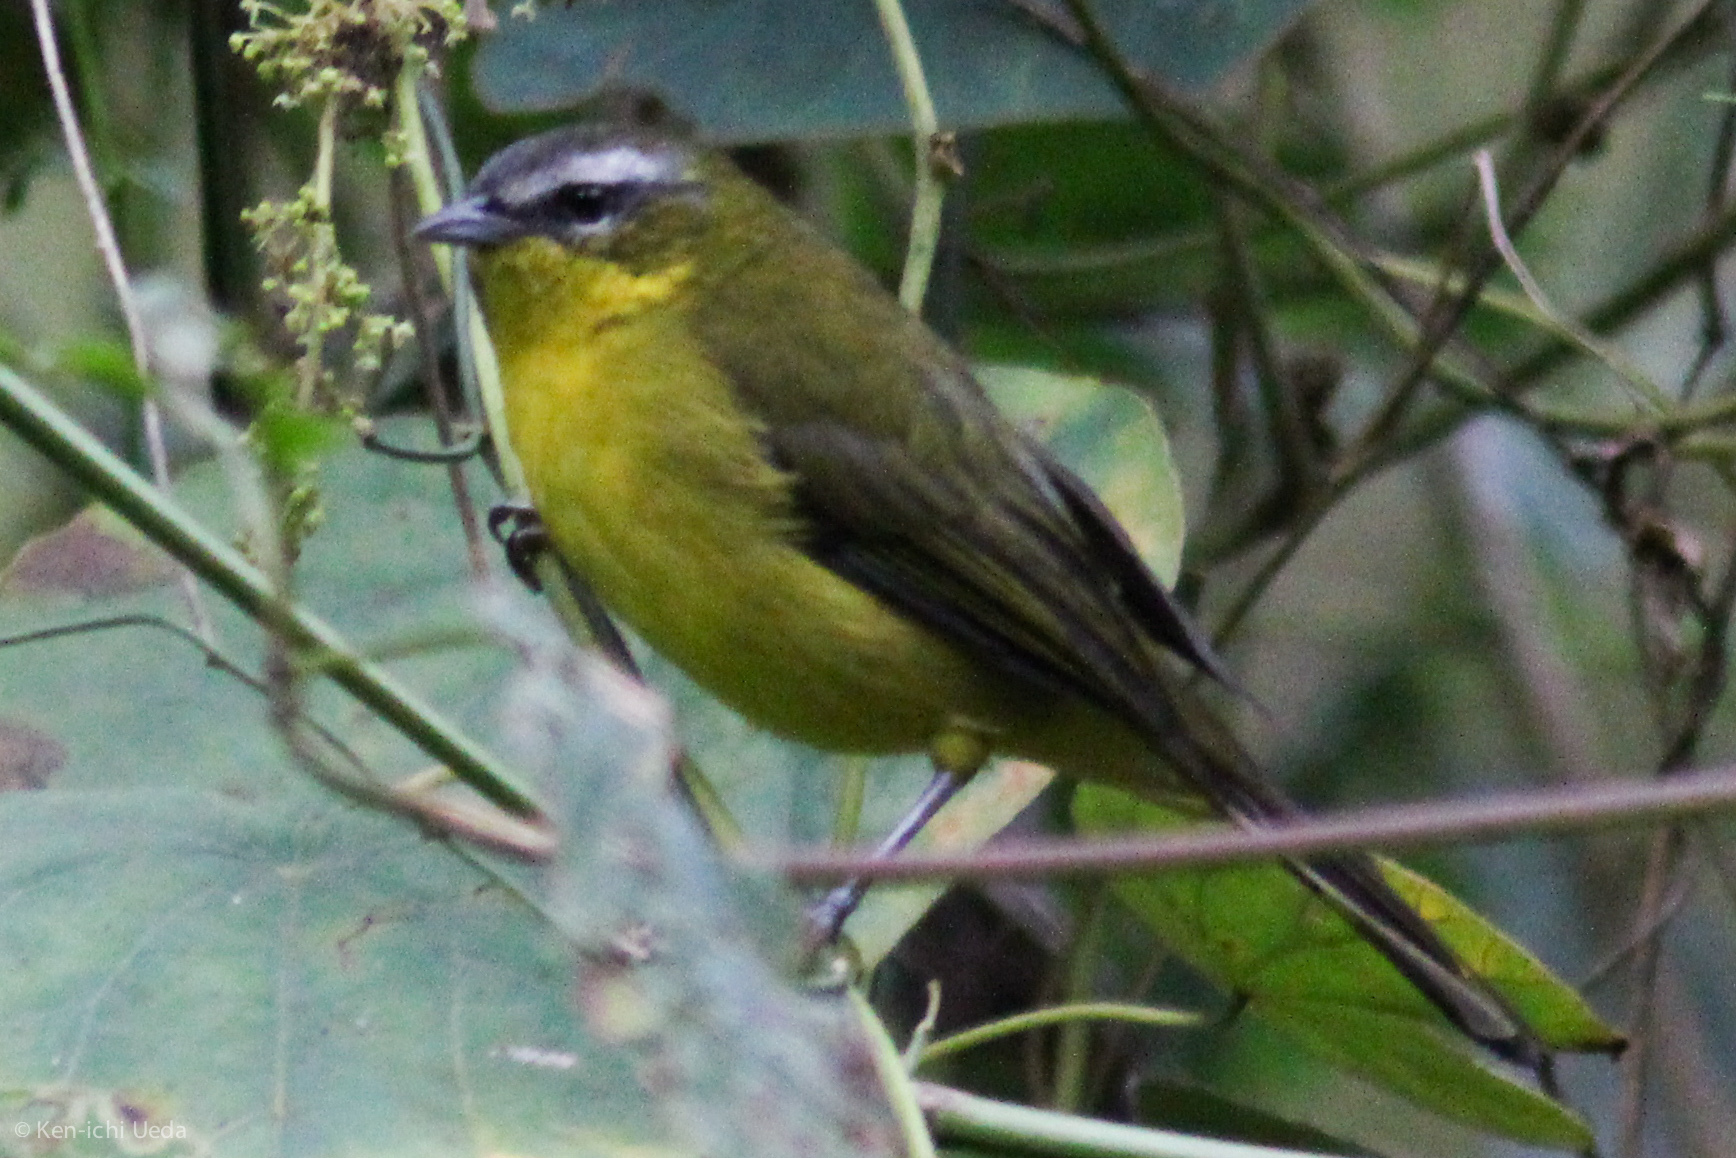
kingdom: Animalia
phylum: Chordata
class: Aves
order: Passeriformes
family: Thraupidae
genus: Thlypopsis
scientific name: Thlypopsis superciliaris
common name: Superciliaried hemispingus
